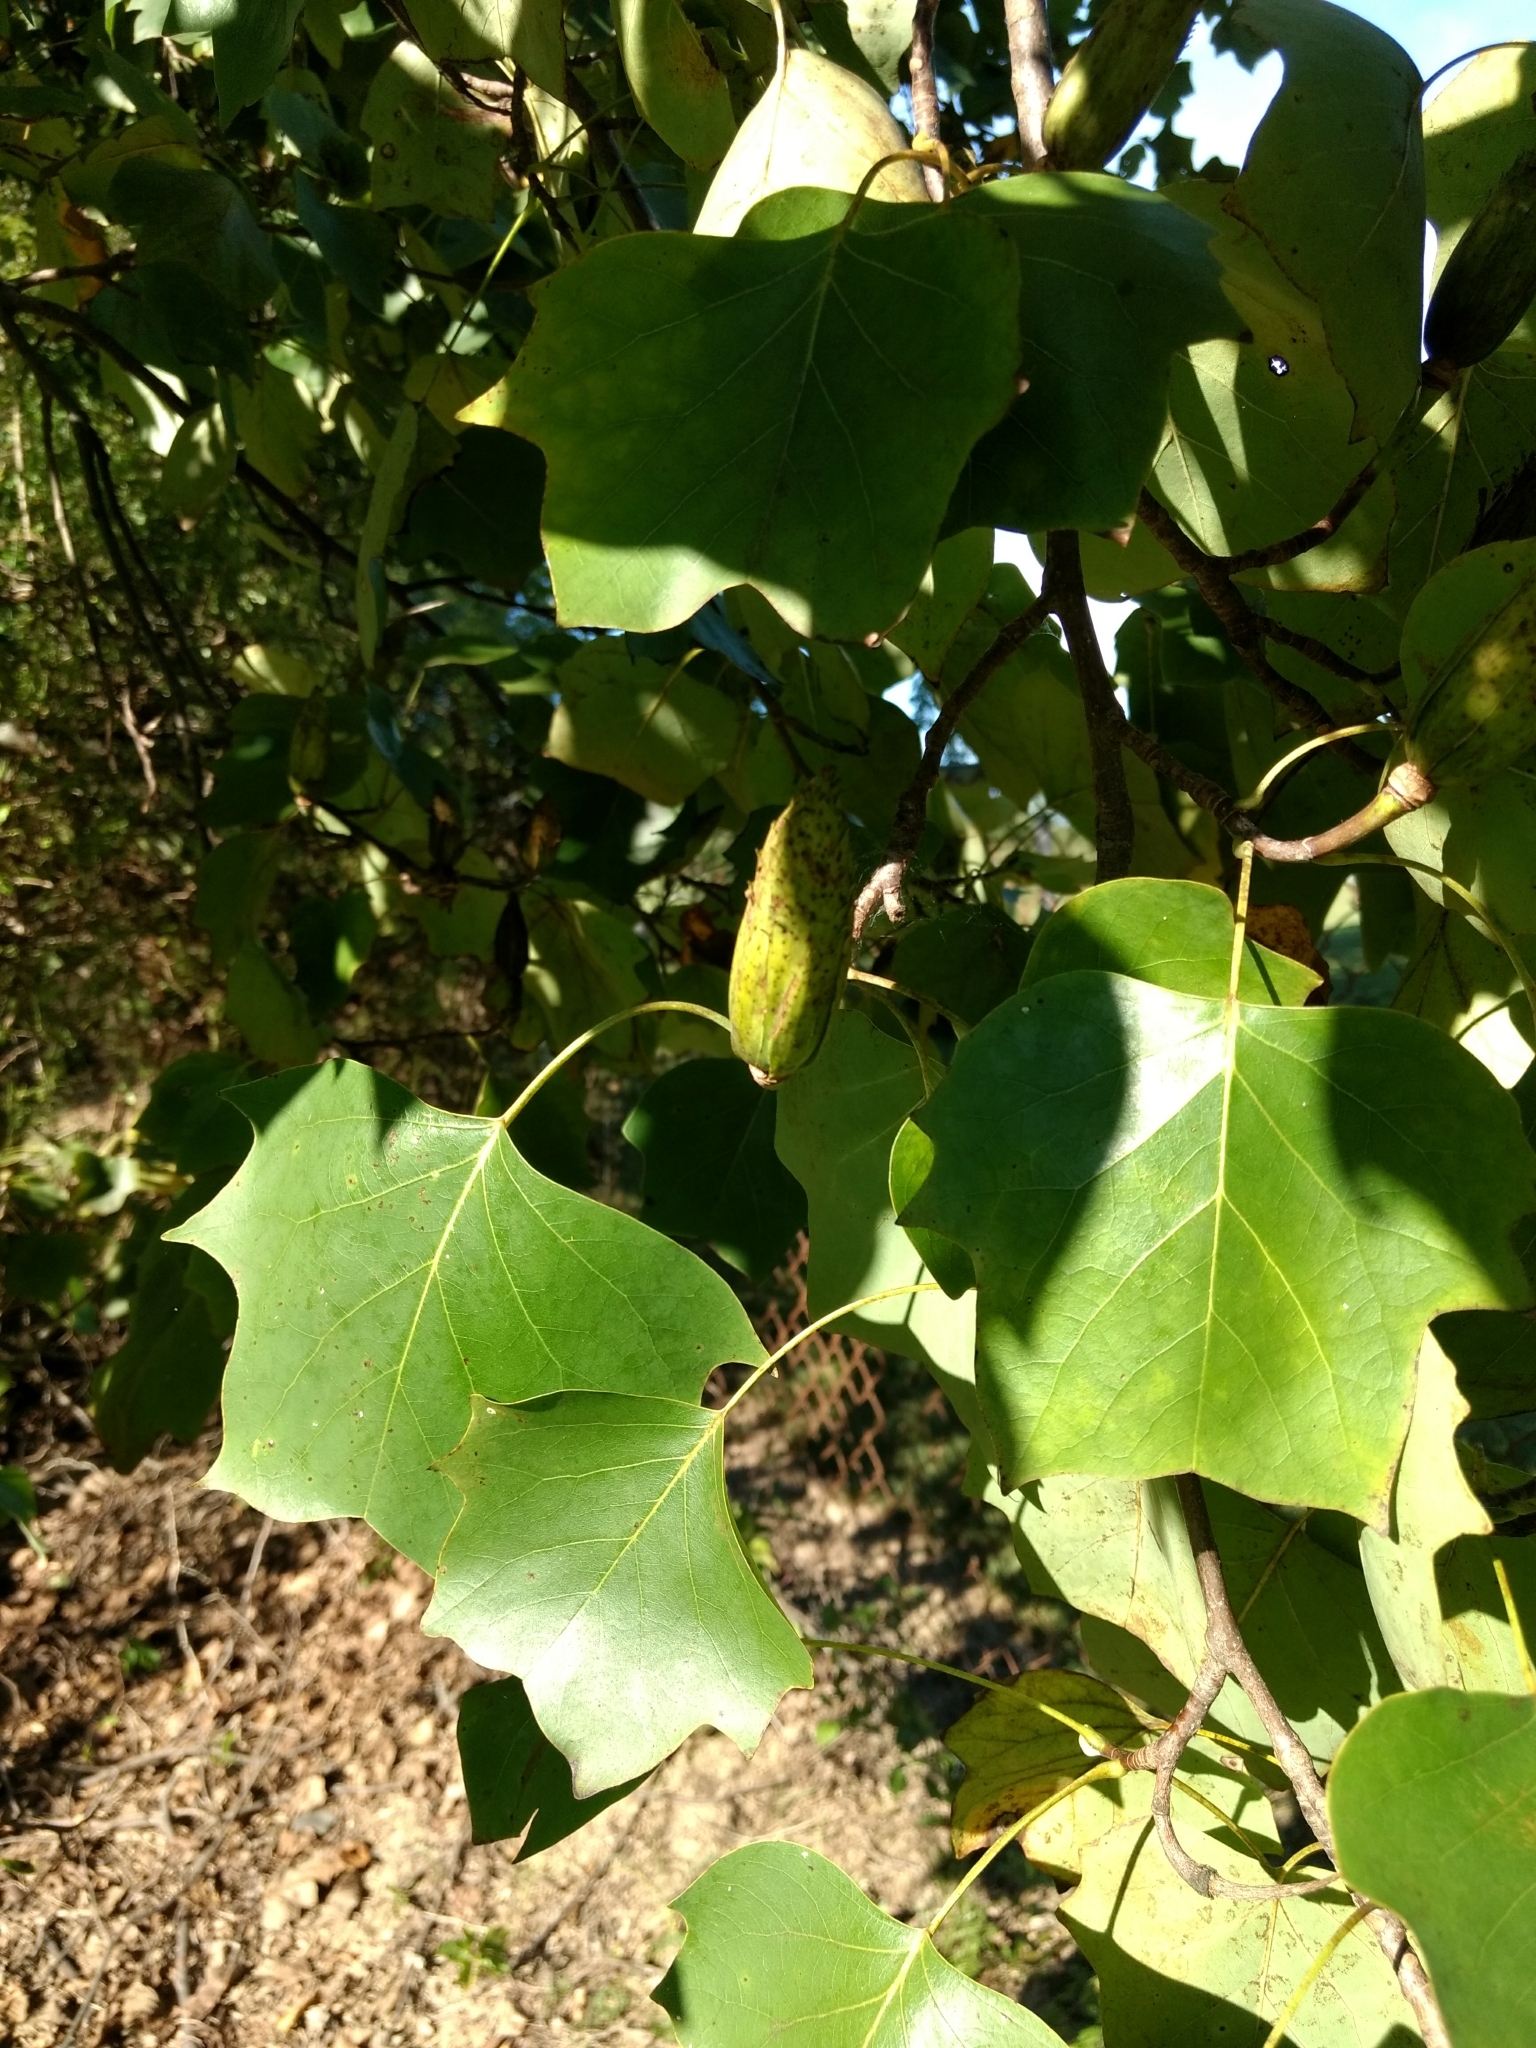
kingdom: Plantae
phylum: Tracheophyta
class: Magnoliopsida
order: Magnoliales
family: Magnoliaceae
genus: Liriodendron
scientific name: Liriodendron tulipifera
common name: Tulip tree
